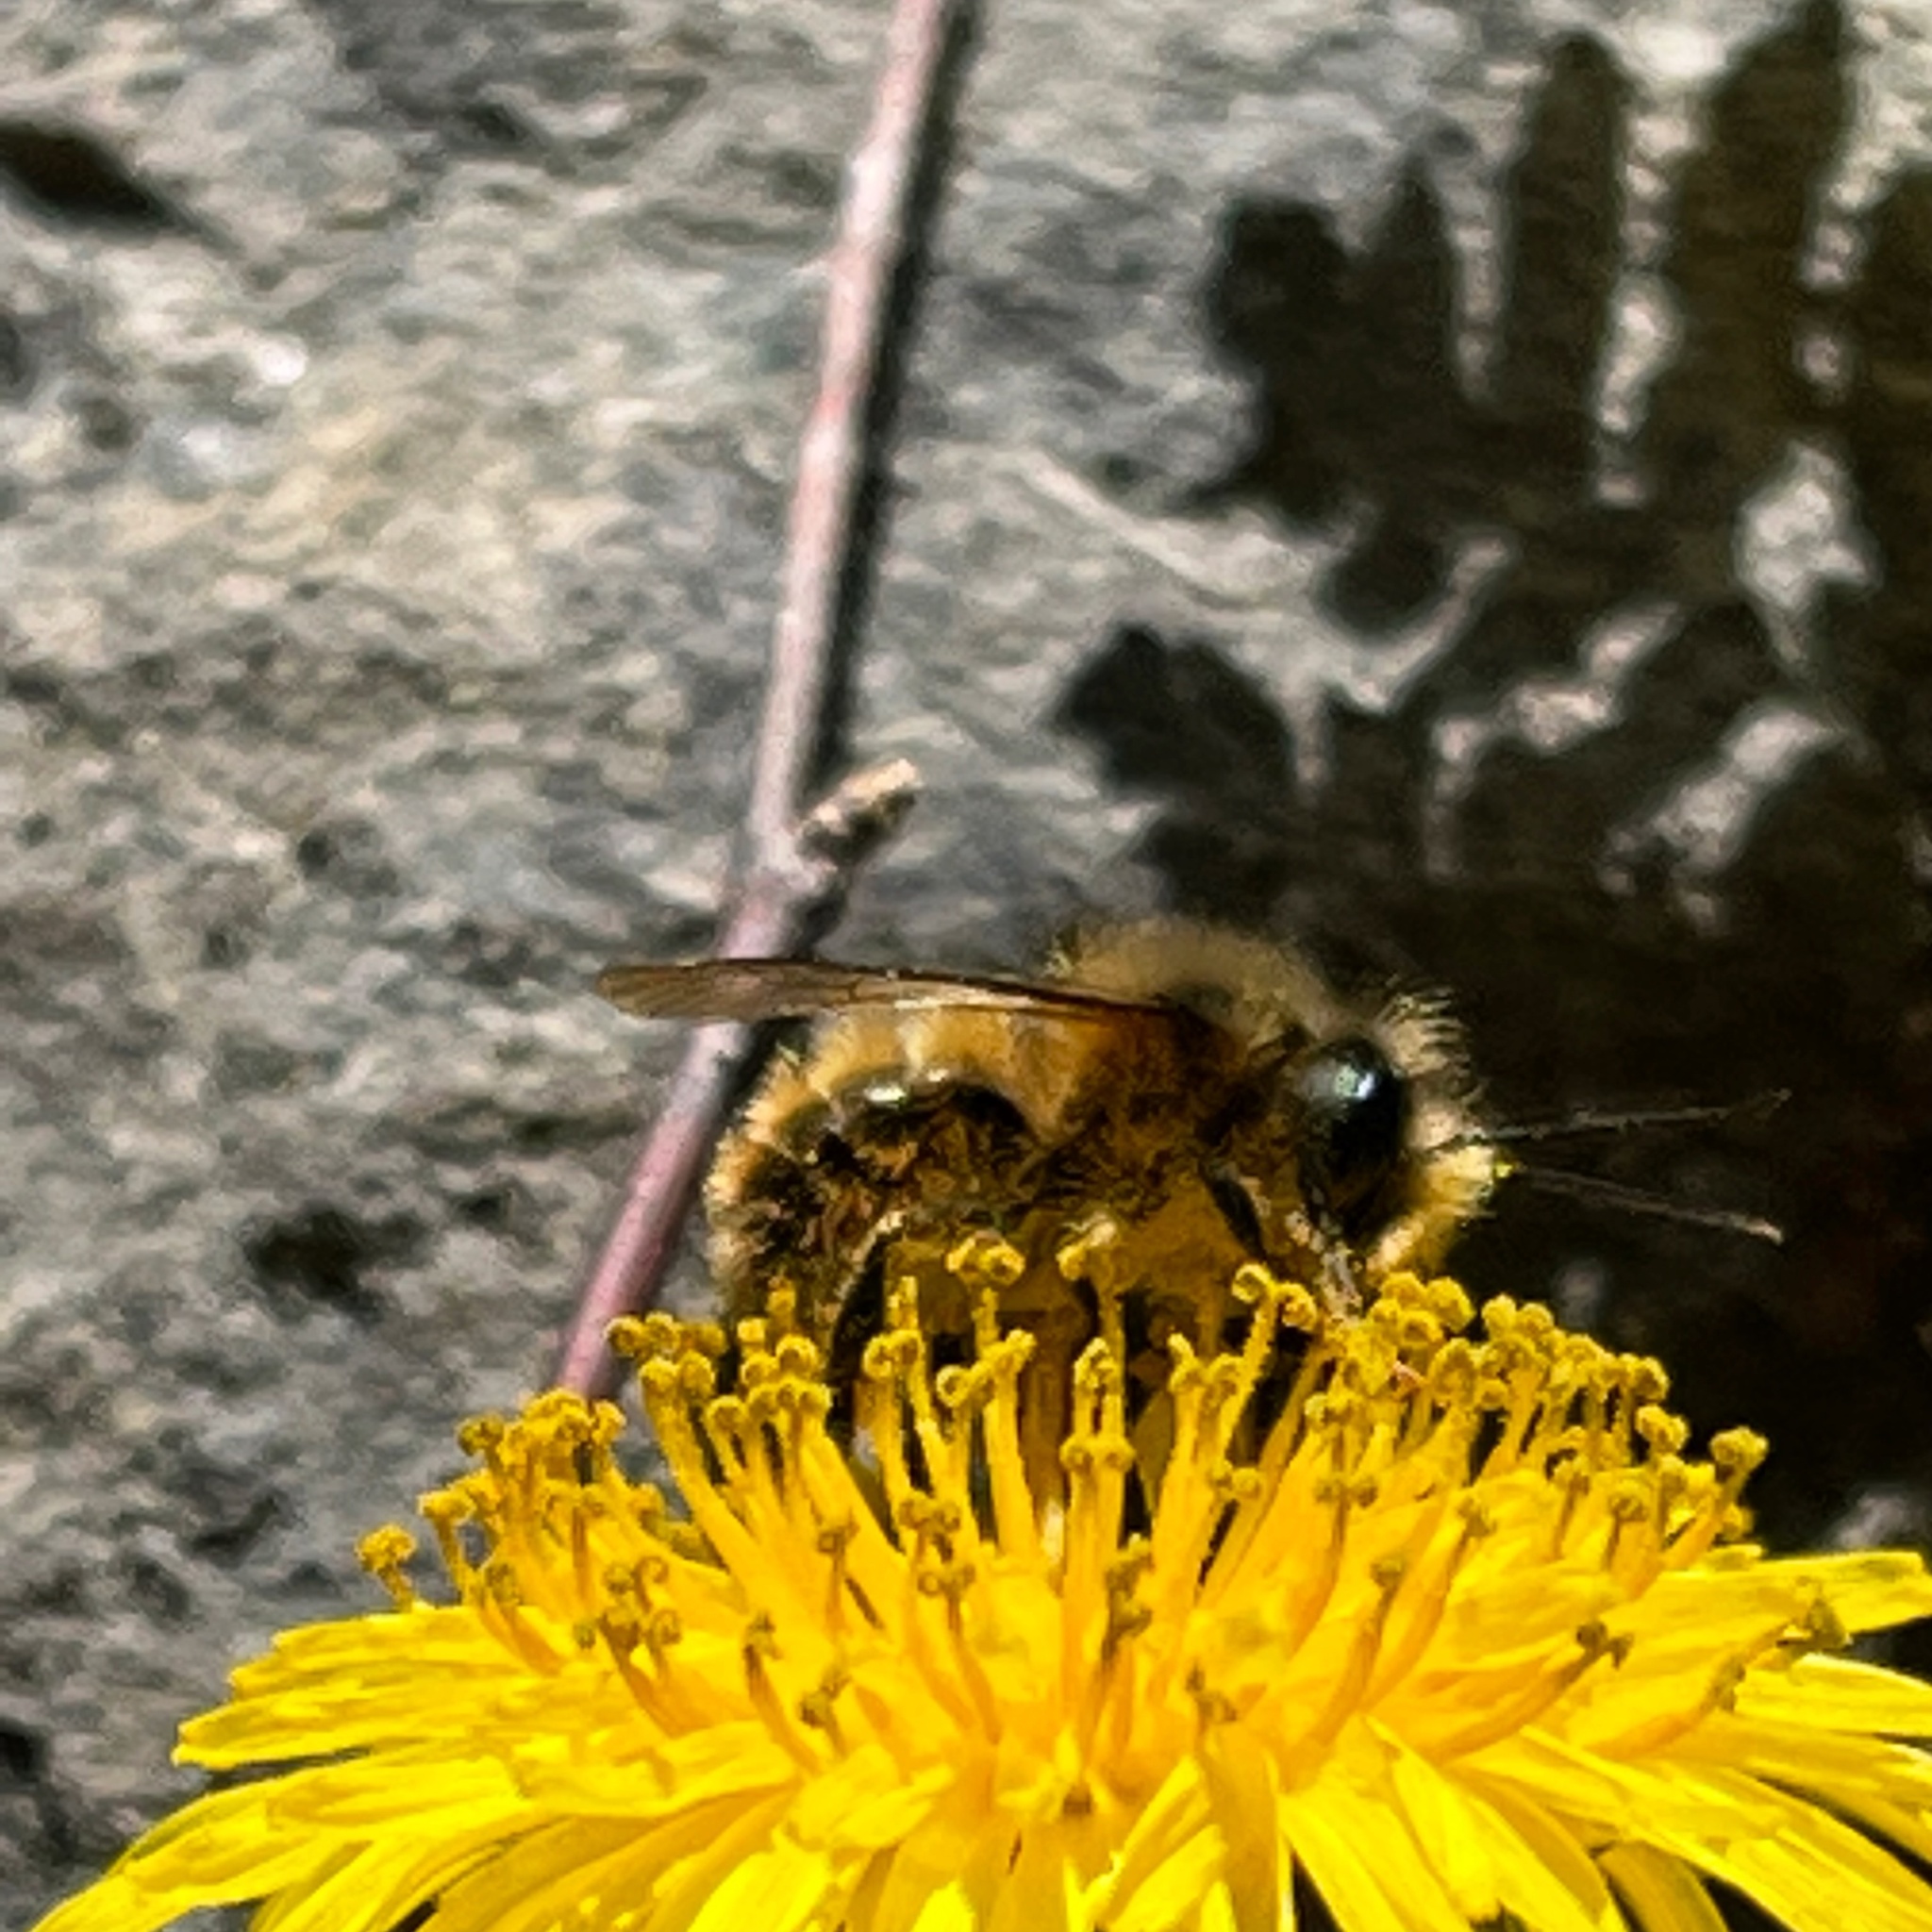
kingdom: Animalia
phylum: Arthropoda
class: Insecta
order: Hymenoptera
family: Megachilidae
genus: Osmia
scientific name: Osmia taurus
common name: Taurus mason bee
